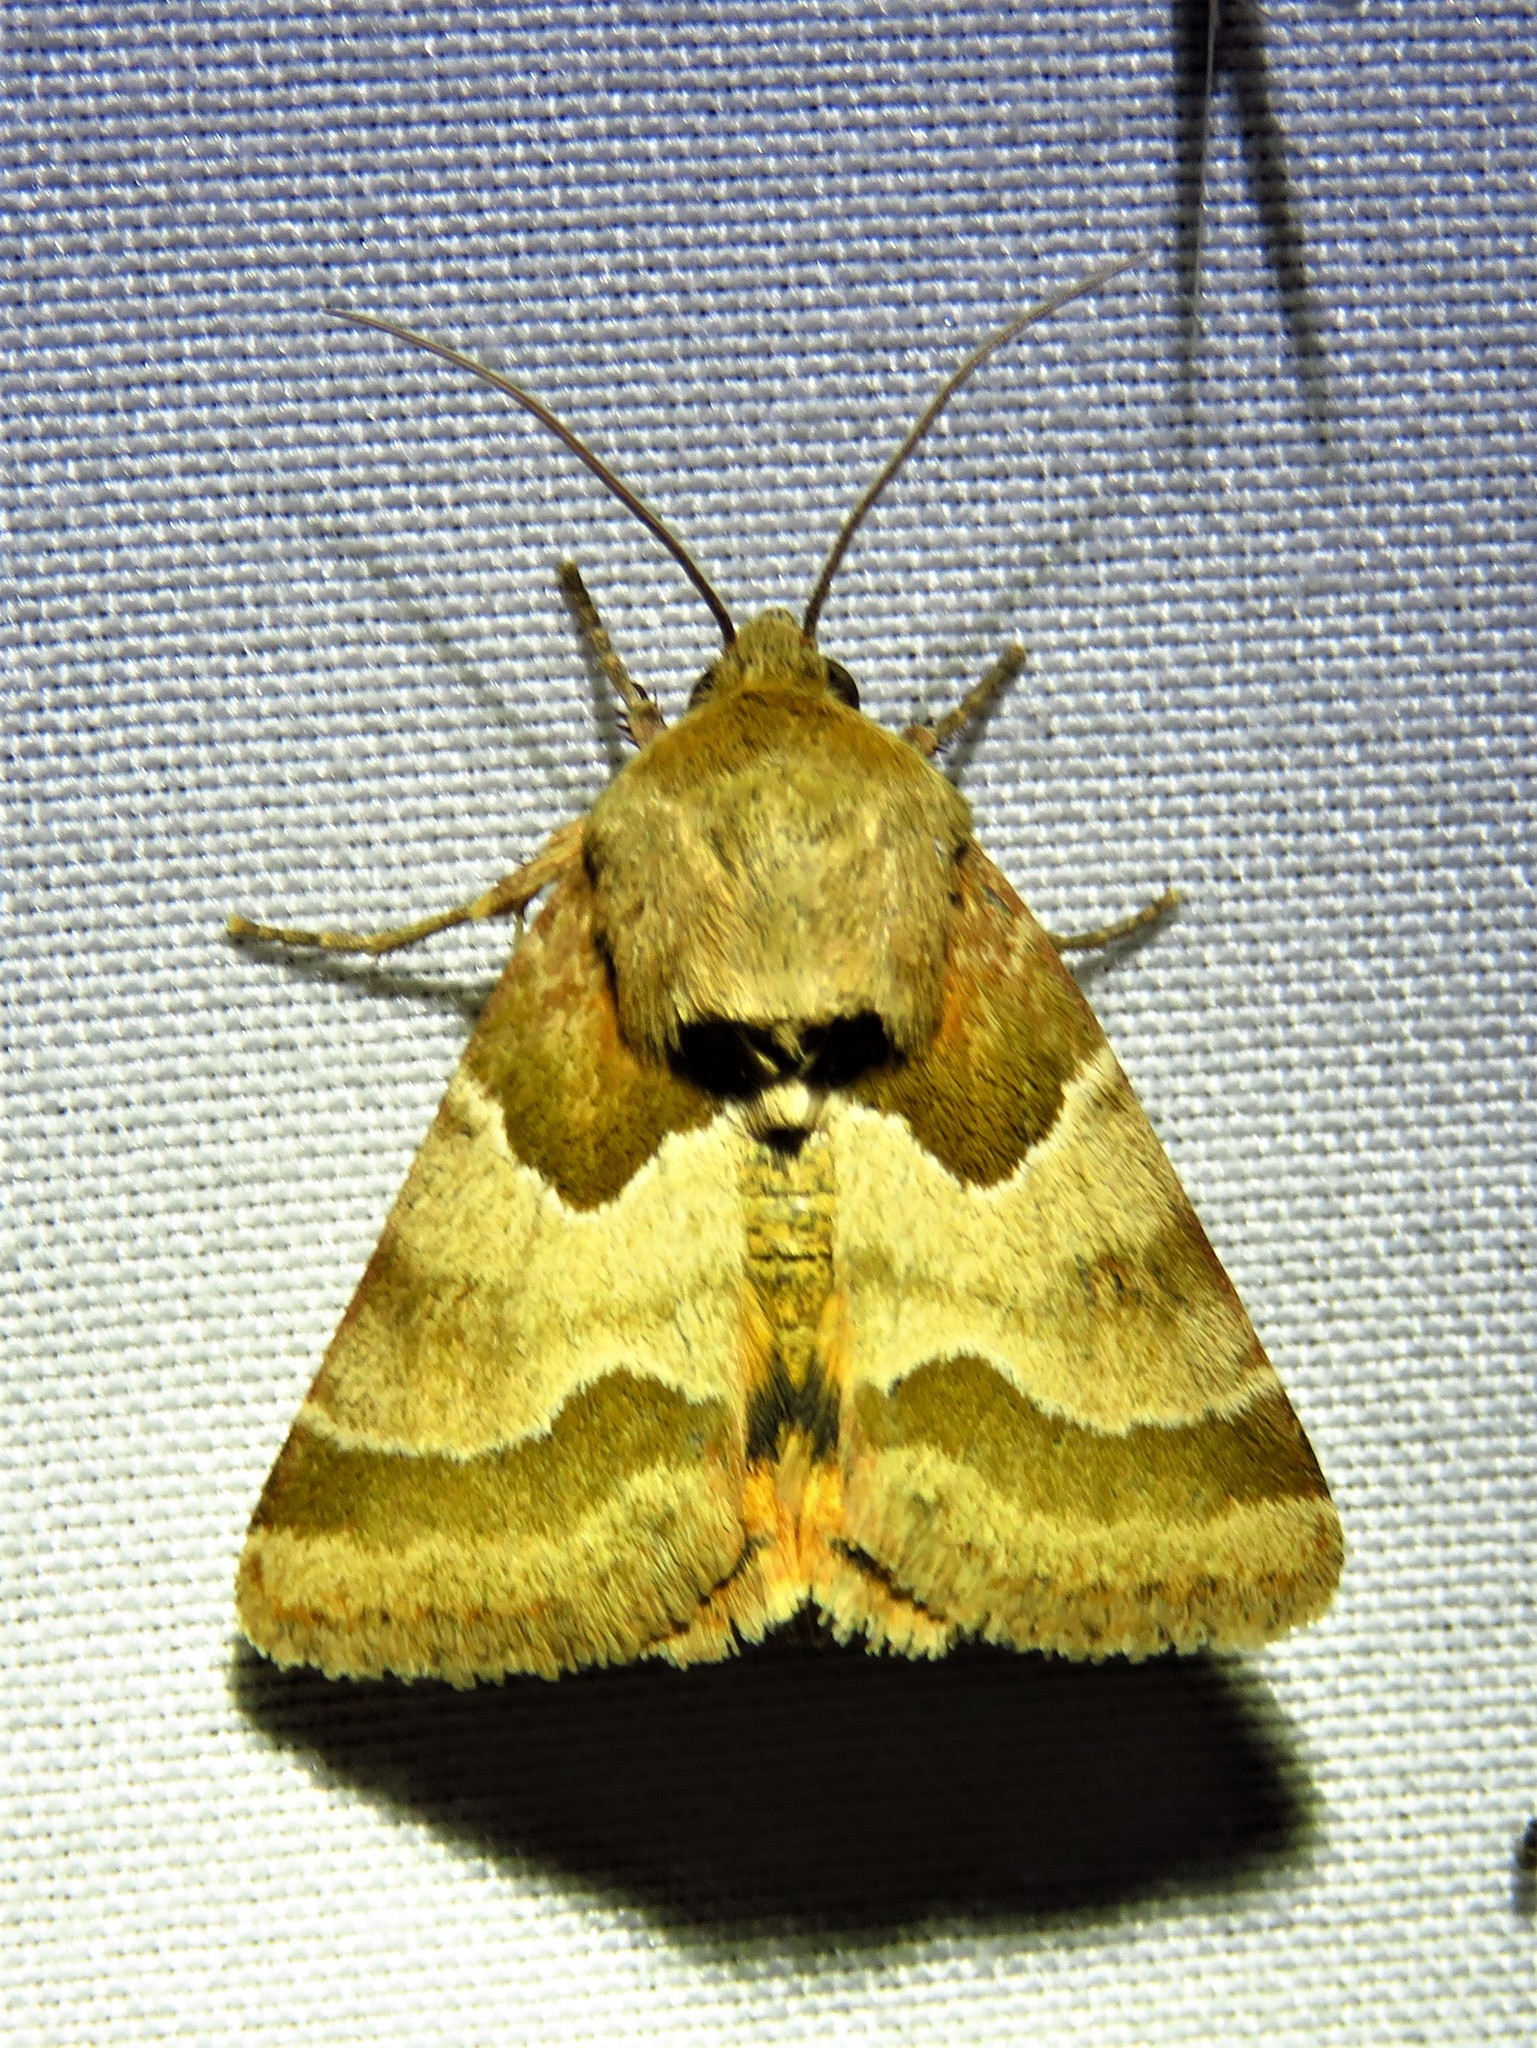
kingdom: Animalia
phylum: Arthropoda
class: Insecta
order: Lepidoptera
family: Noctuidae
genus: Schinia
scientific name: Schinia jaguarina
